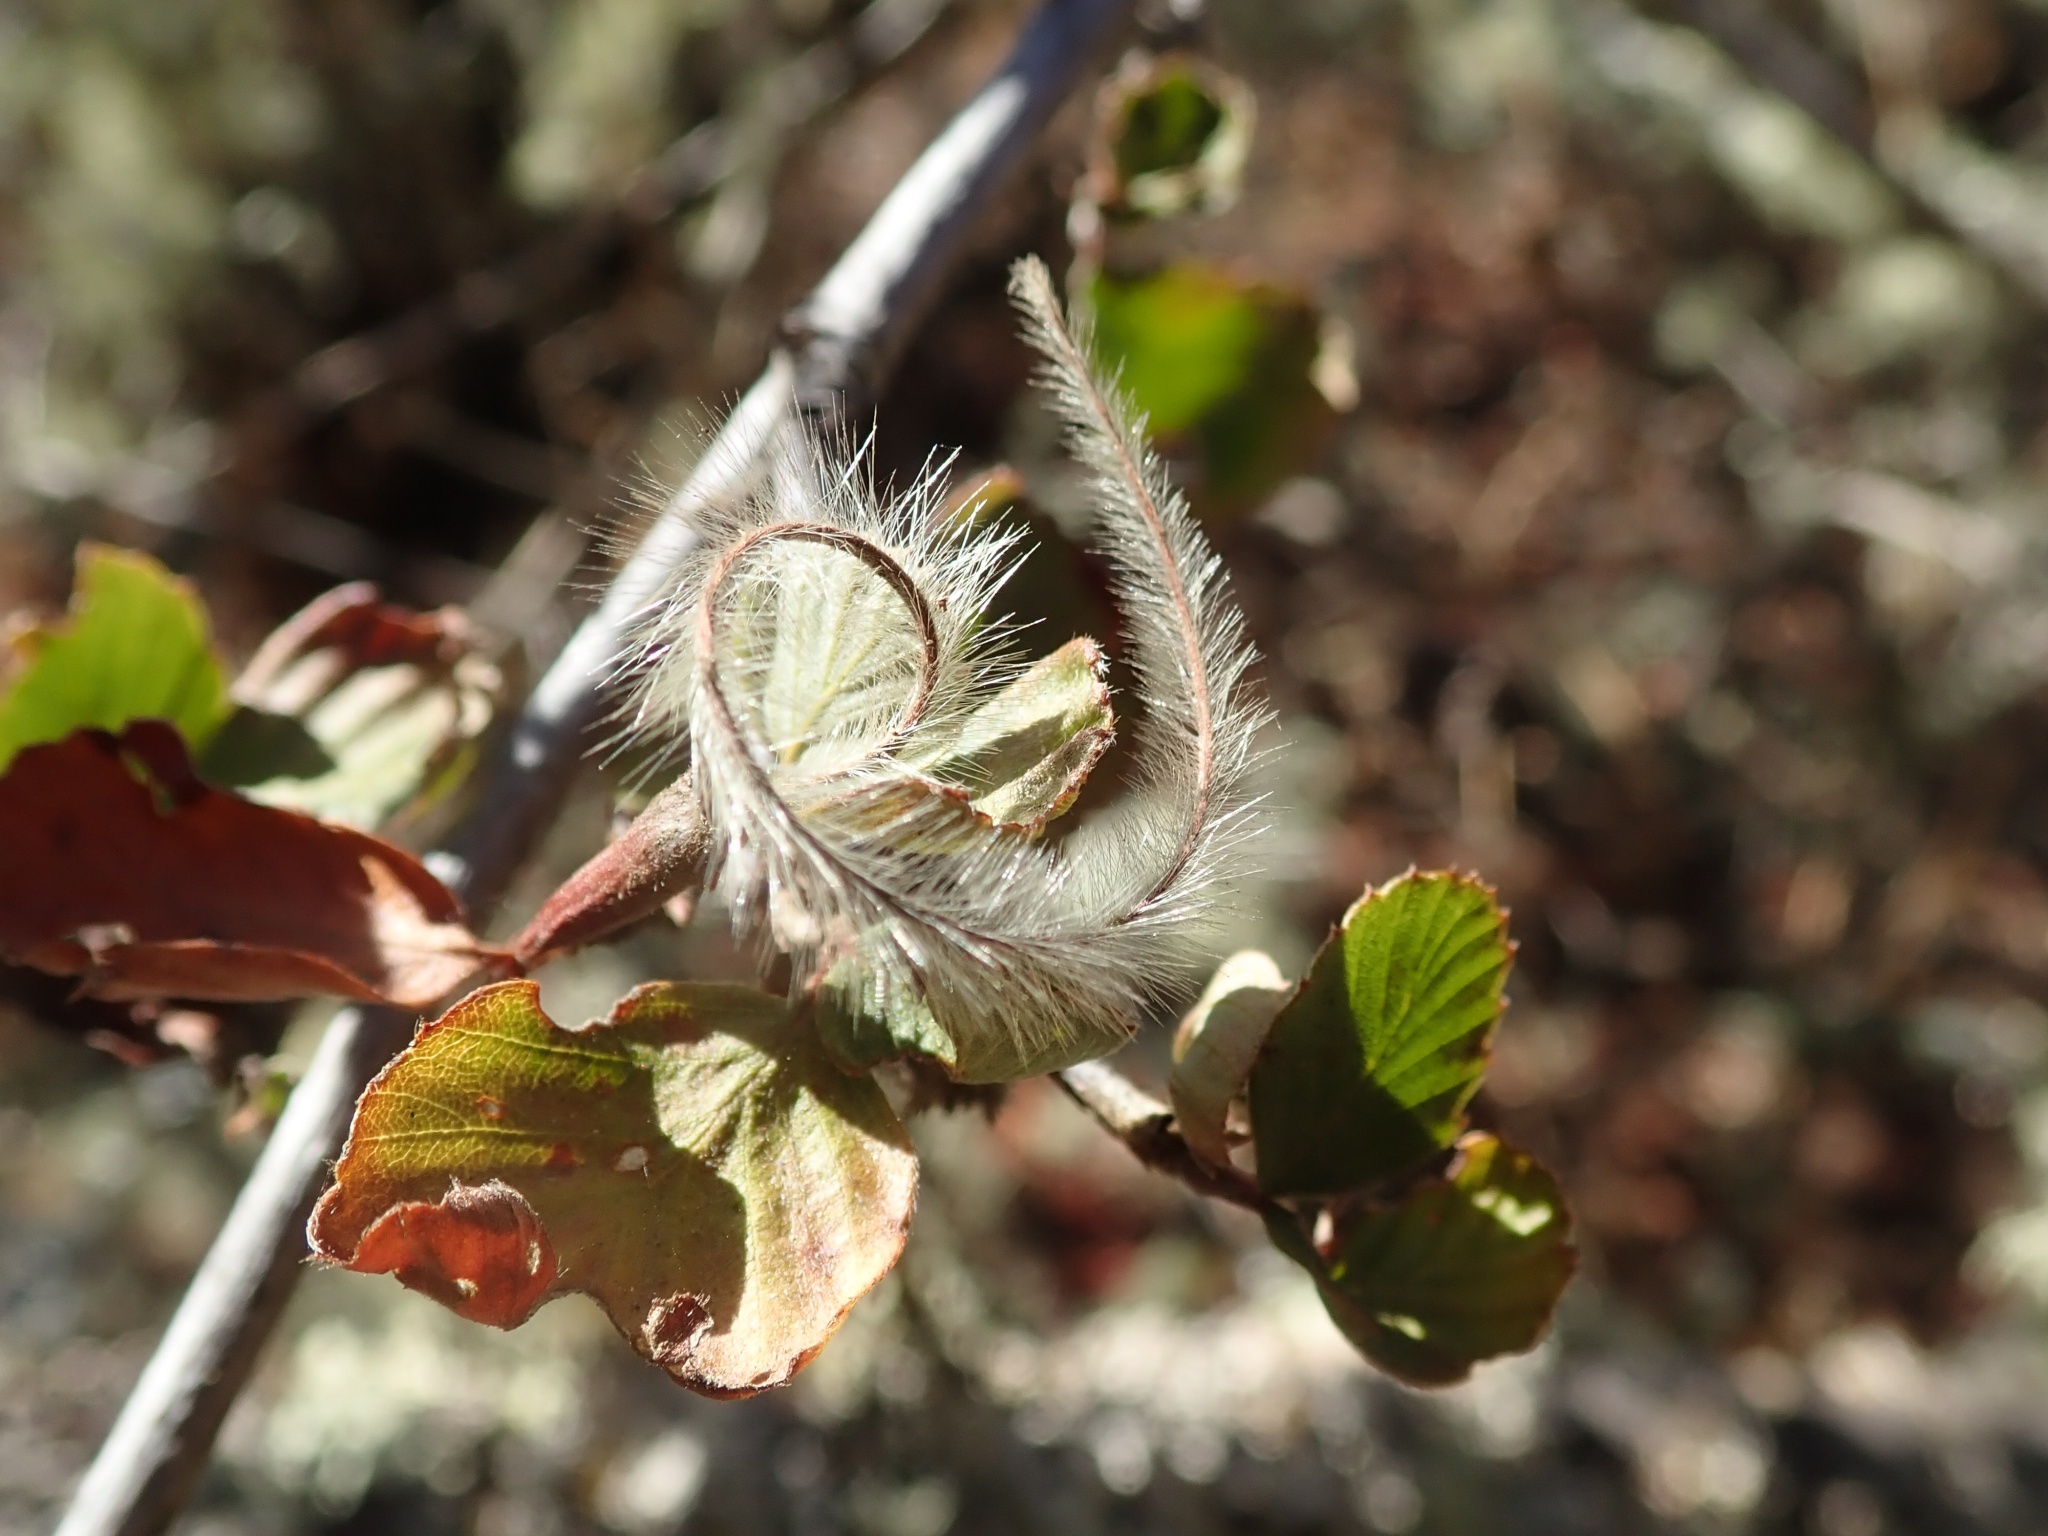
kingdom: Plantae
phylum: Tracheophyta
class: Magnoliopsida
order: Rosales
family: Rosaceae
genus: Cercocarpus
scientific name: Cercocarpus betuloides
